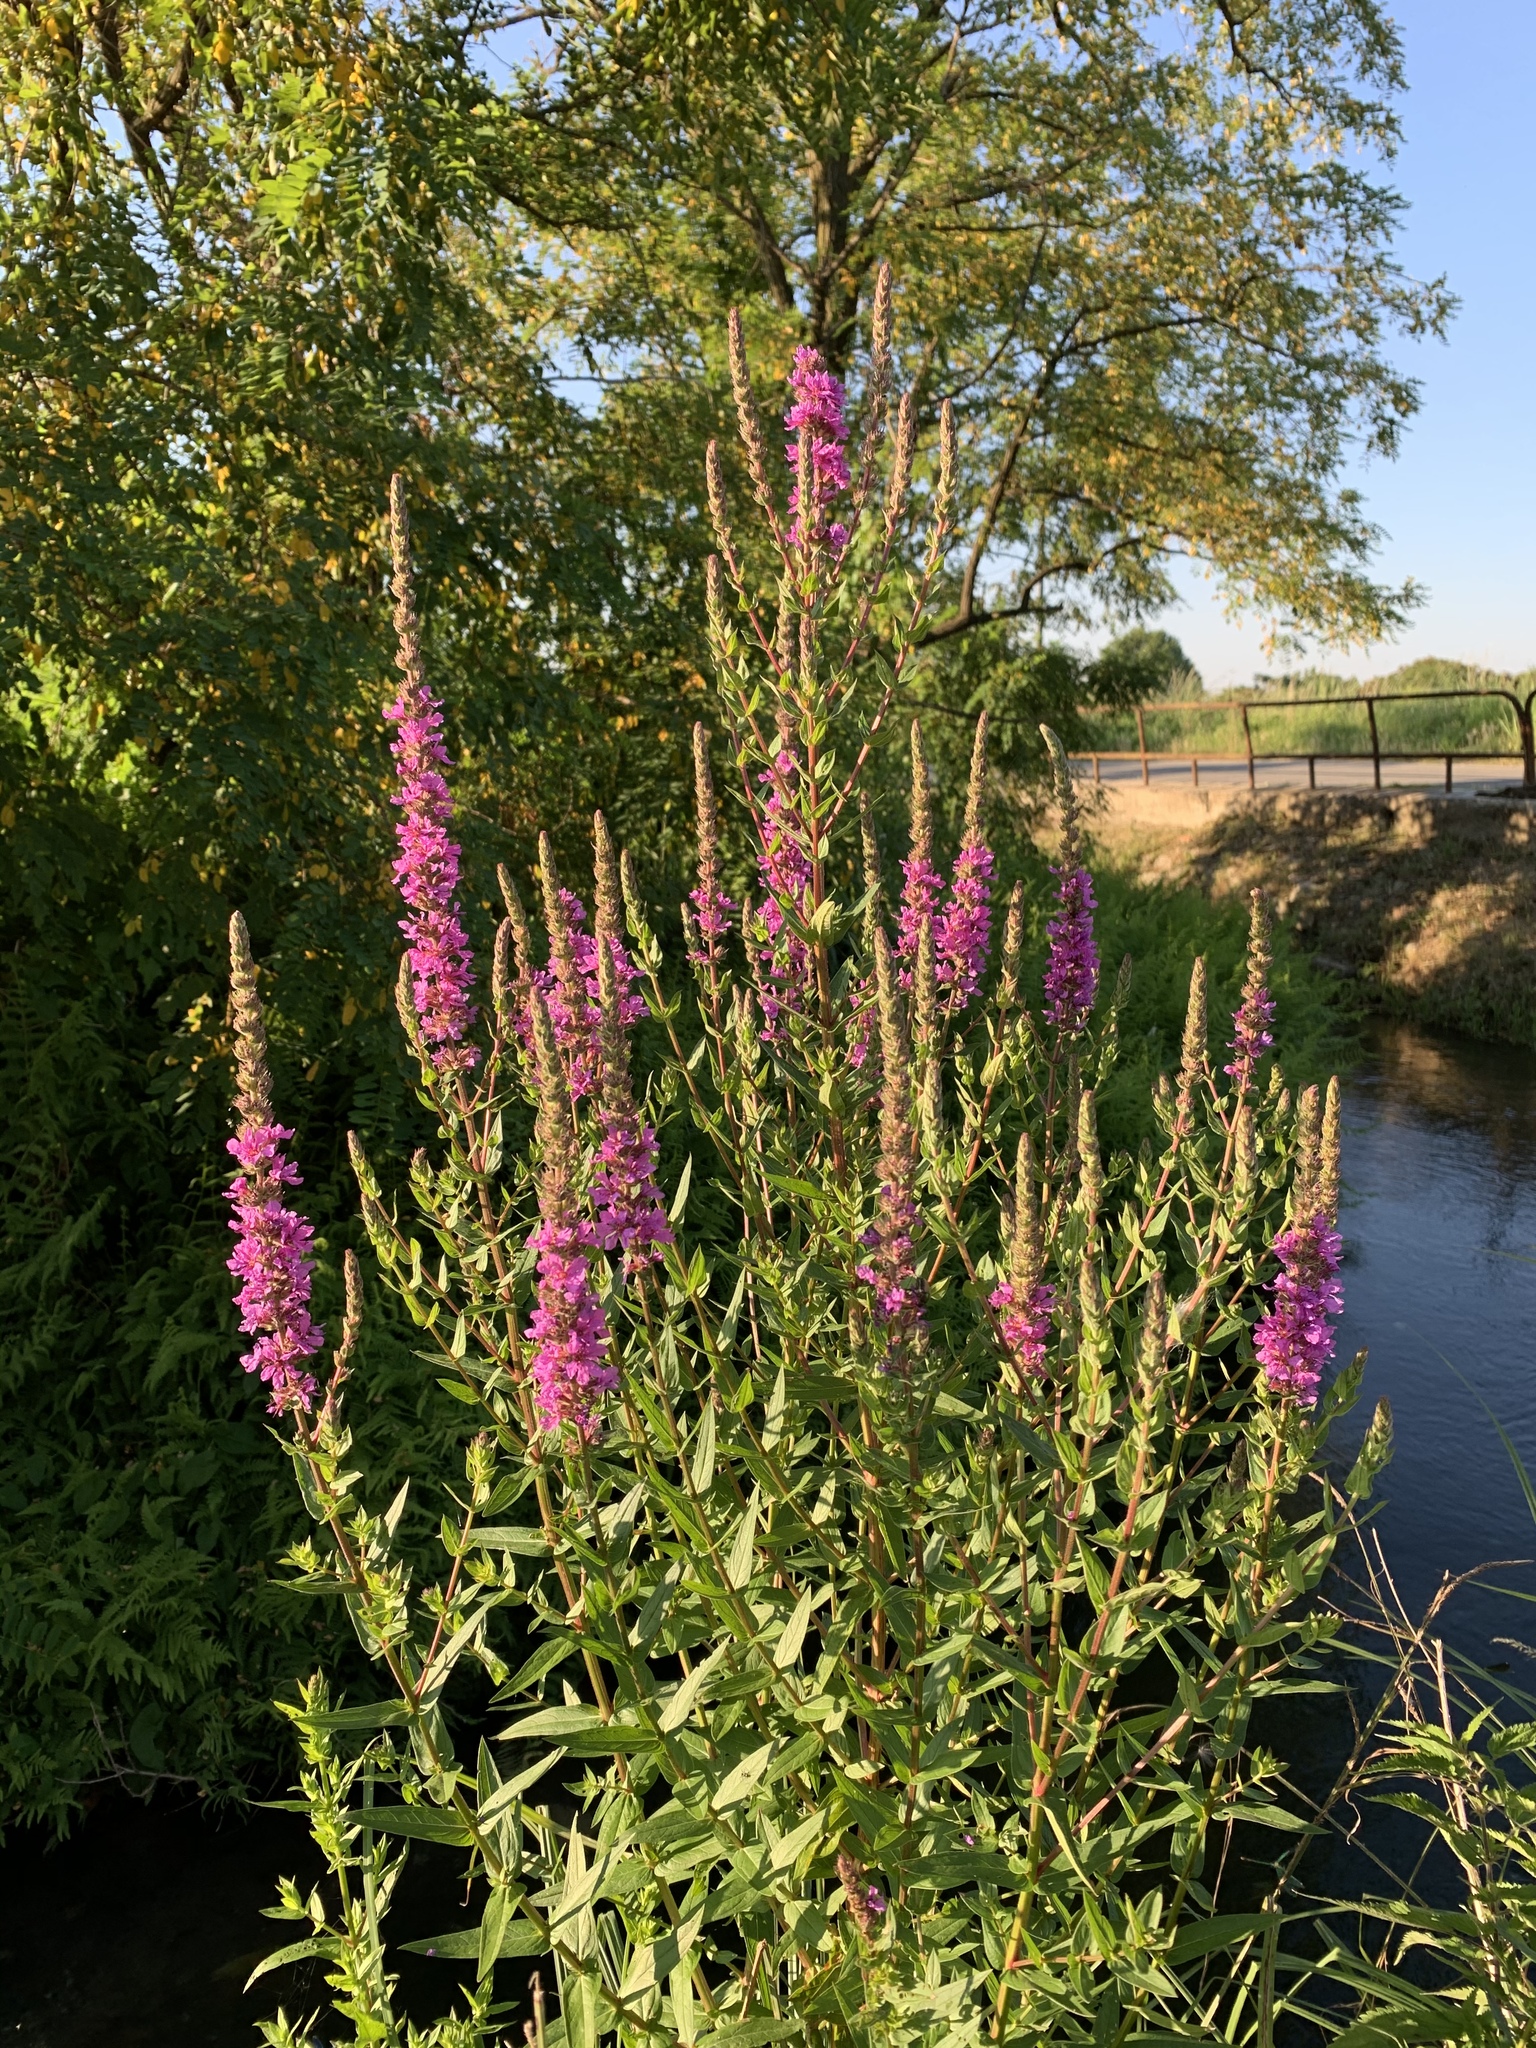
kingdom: Plantae
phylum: Tracheophyta
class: Magnoliopsida
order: Myrtales
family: Lythraceae
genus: Lythrum
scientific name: Lythrum salicaria
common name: Purple loosestrife
